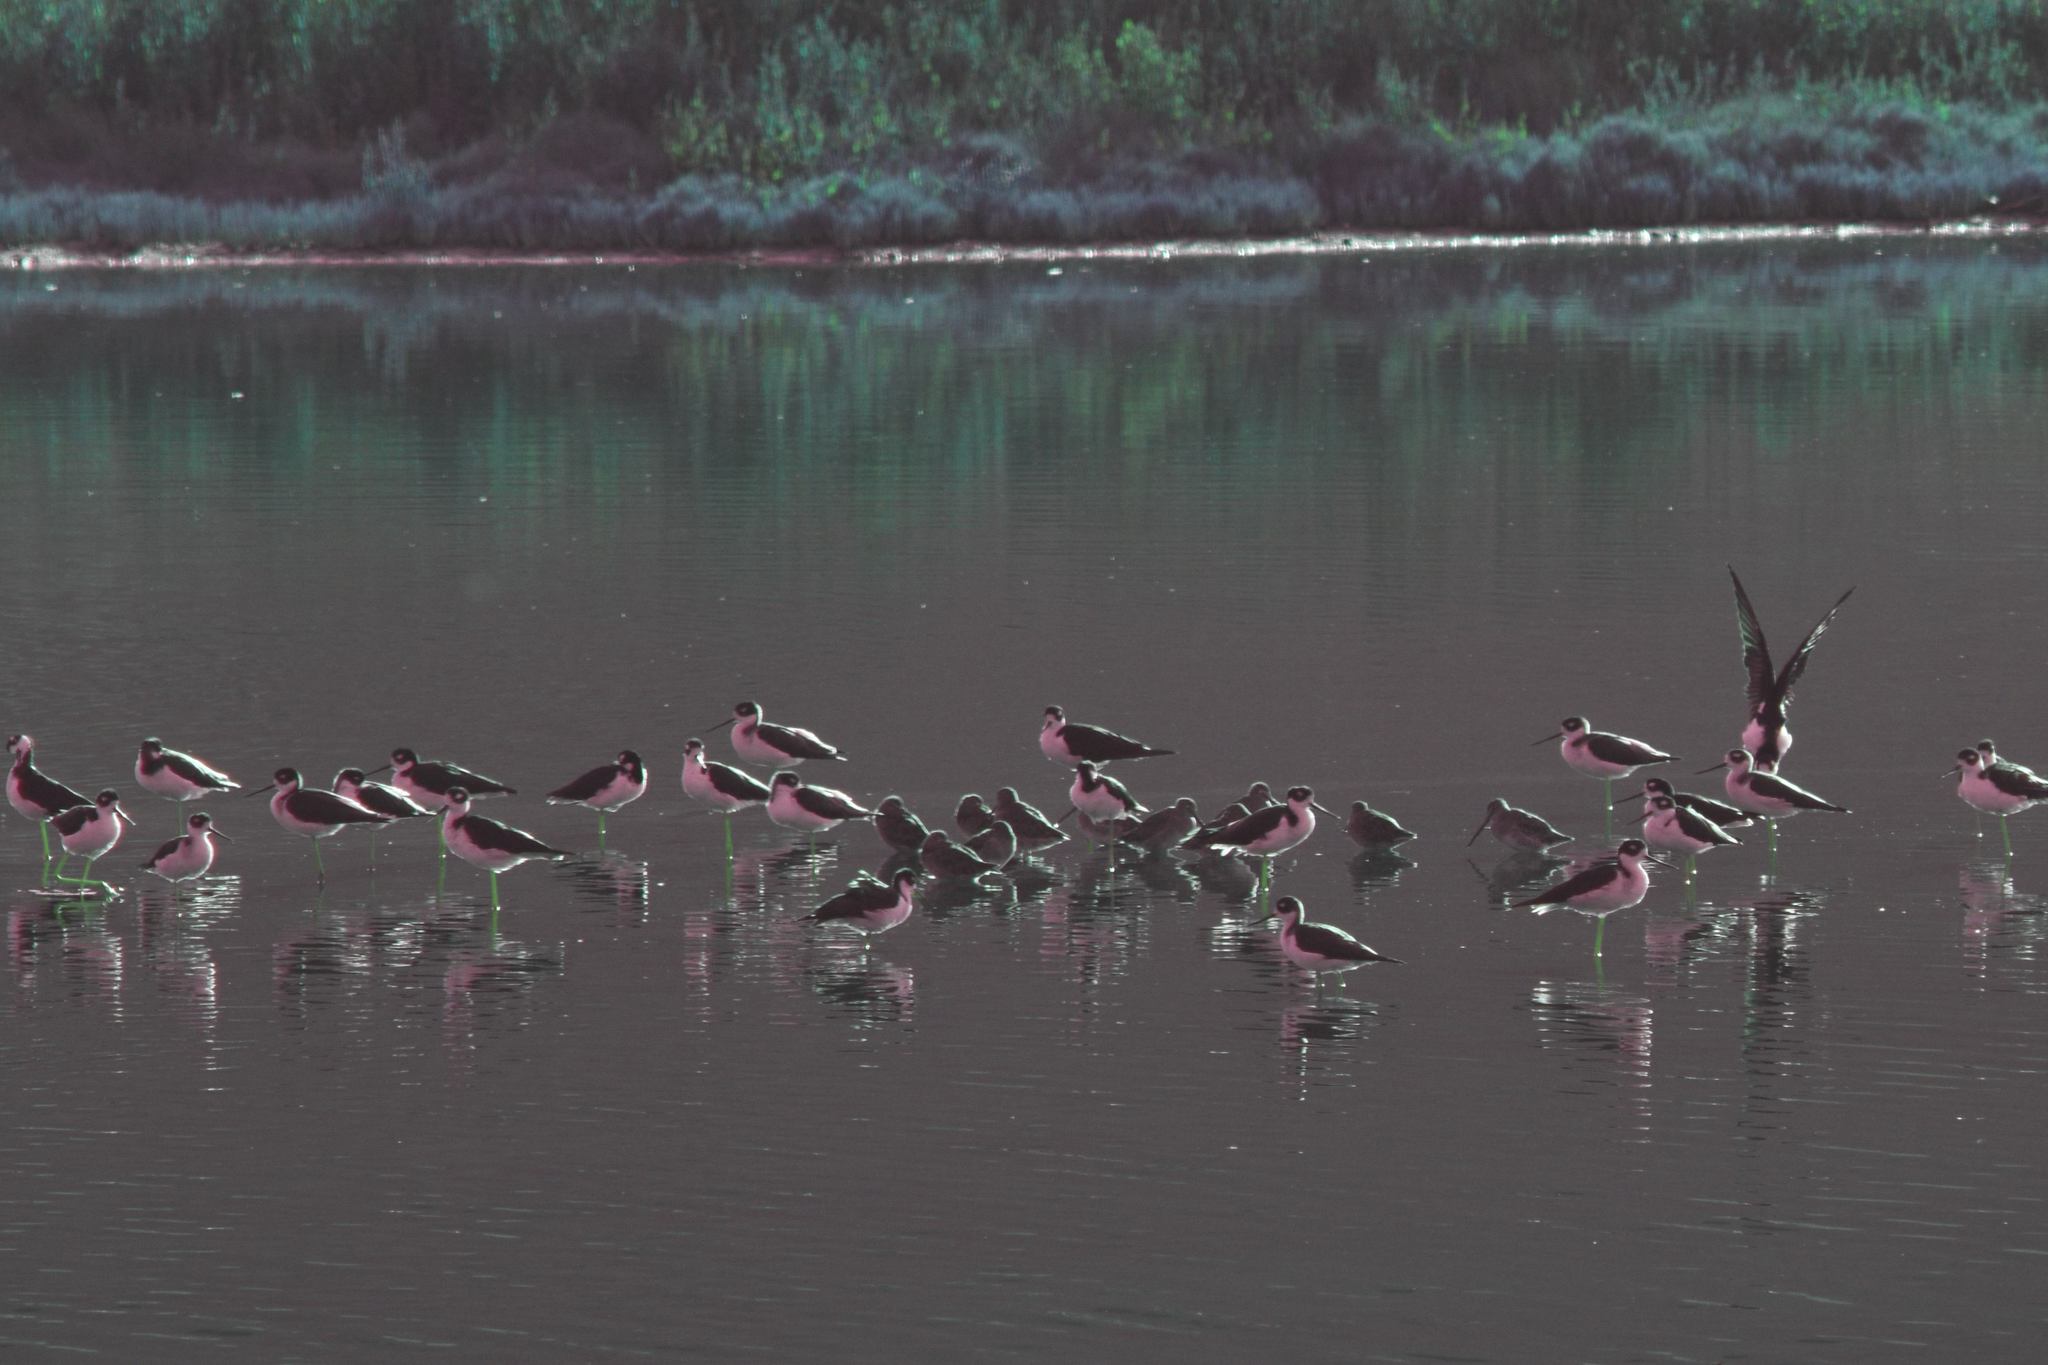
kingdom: Animalia
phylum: Chordata
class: Aves
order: Charadriiformes
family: Recurvirostridae
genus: Himantopus
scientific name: Himantopus mexicanus
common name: Black-necked stilt
